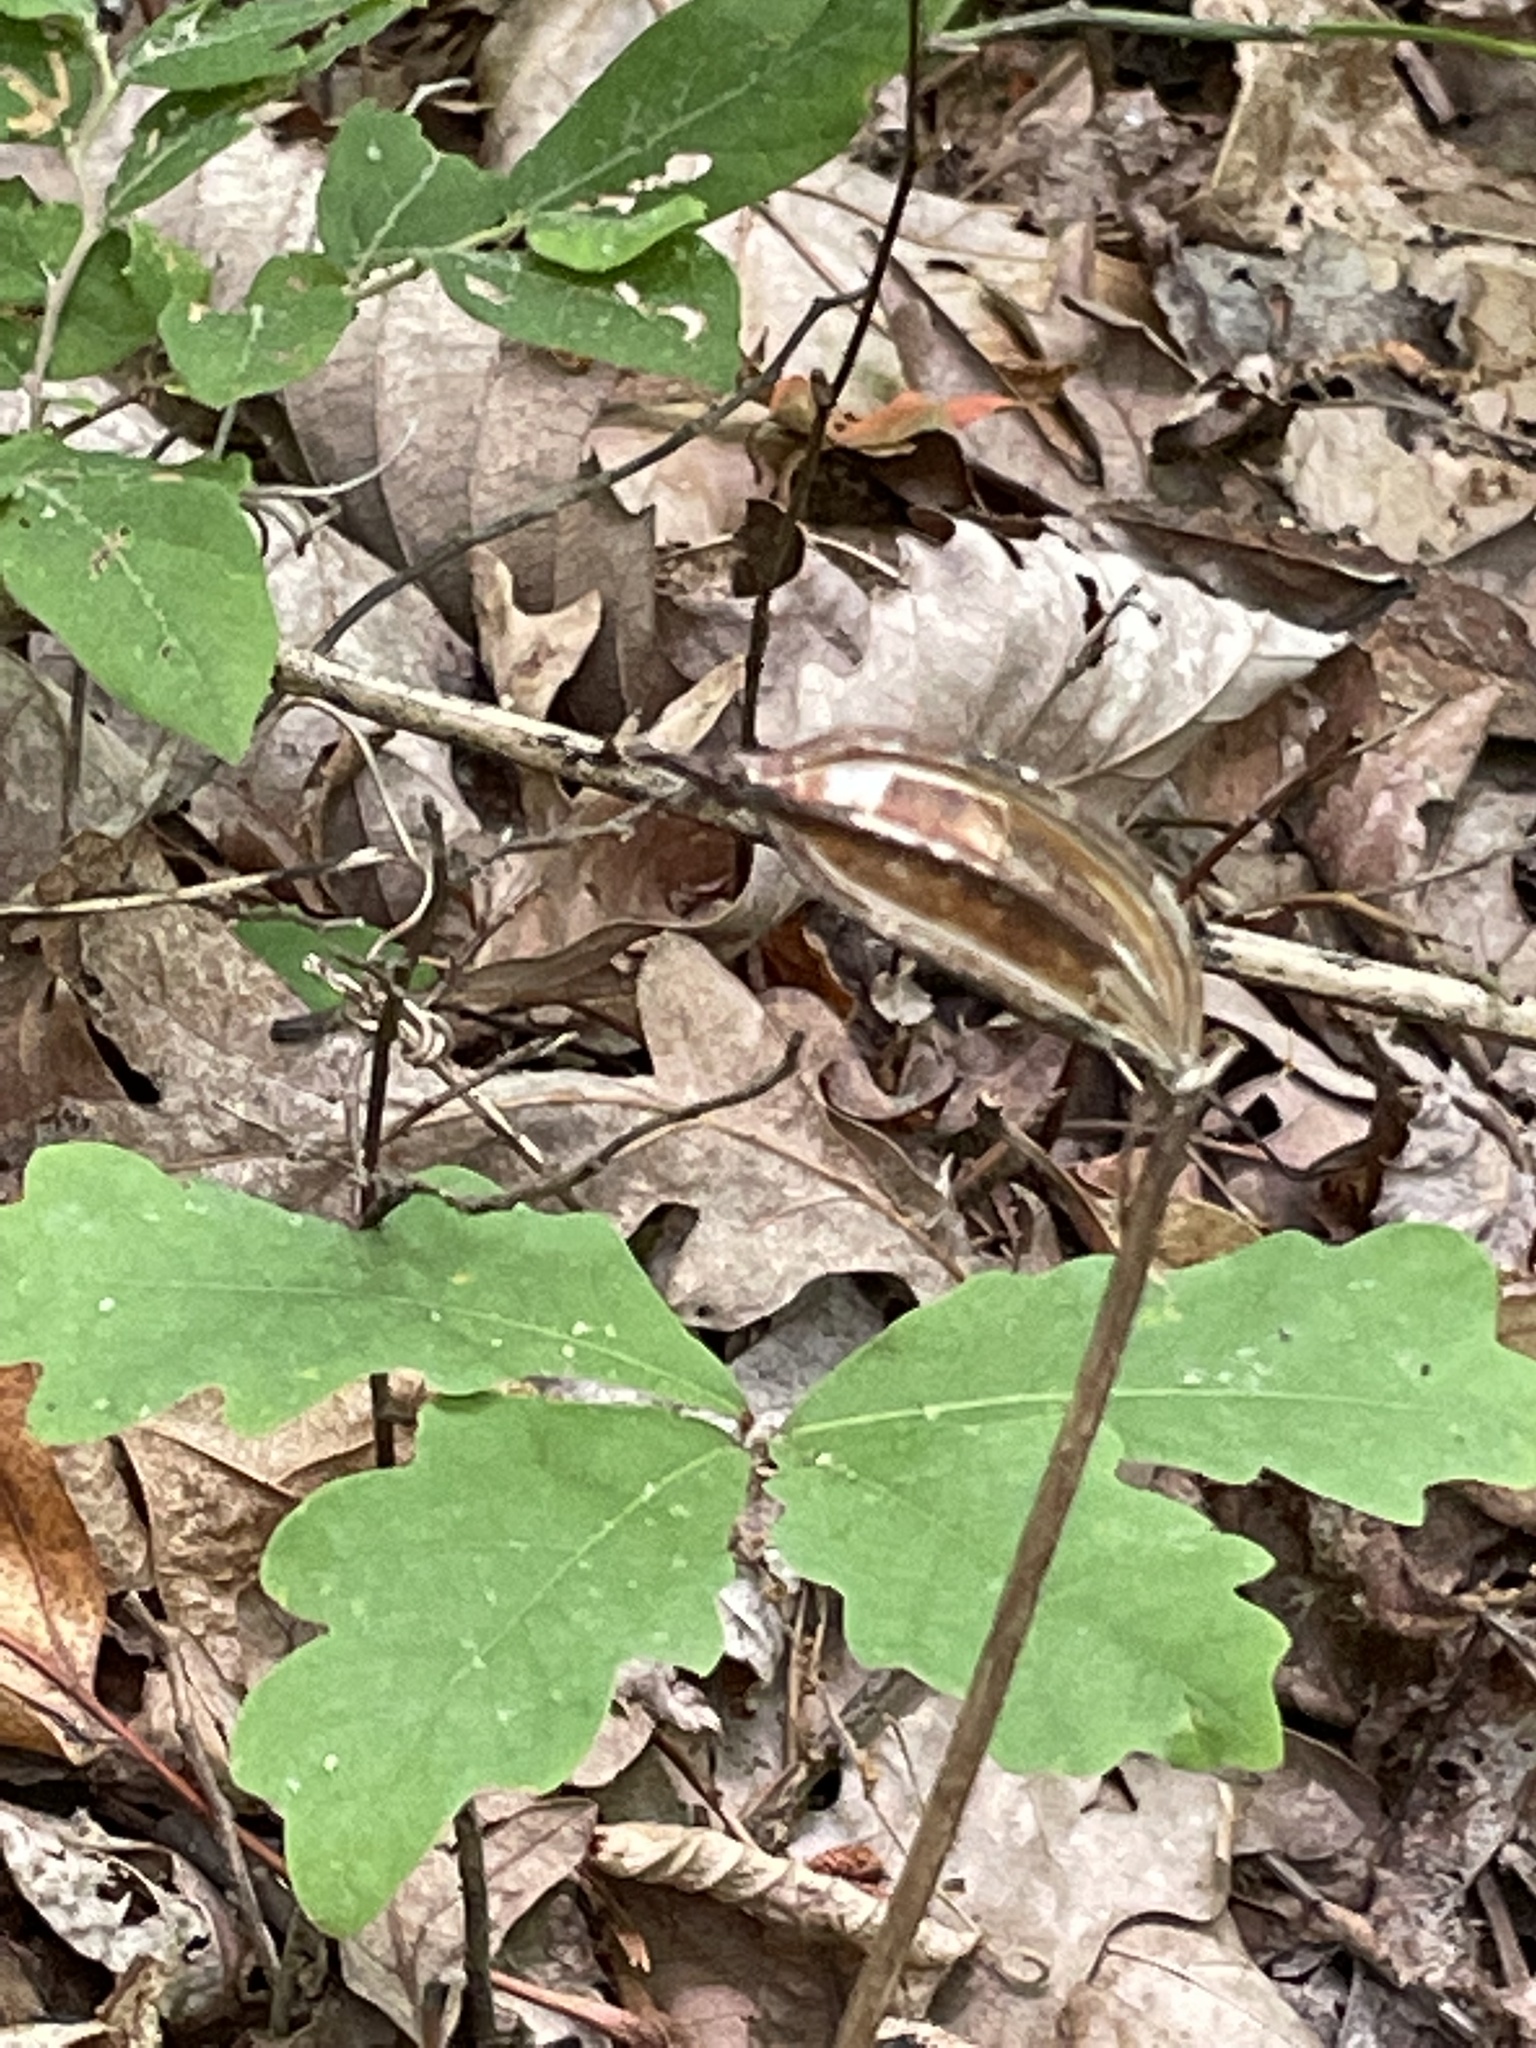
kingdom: Plantae
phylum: Tracheophyta
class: Liliopsida
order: Asparagales
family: Orchidaceae
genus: Cypripedium
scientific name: Cypripedium acaule
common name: Pink lady's-slipper
